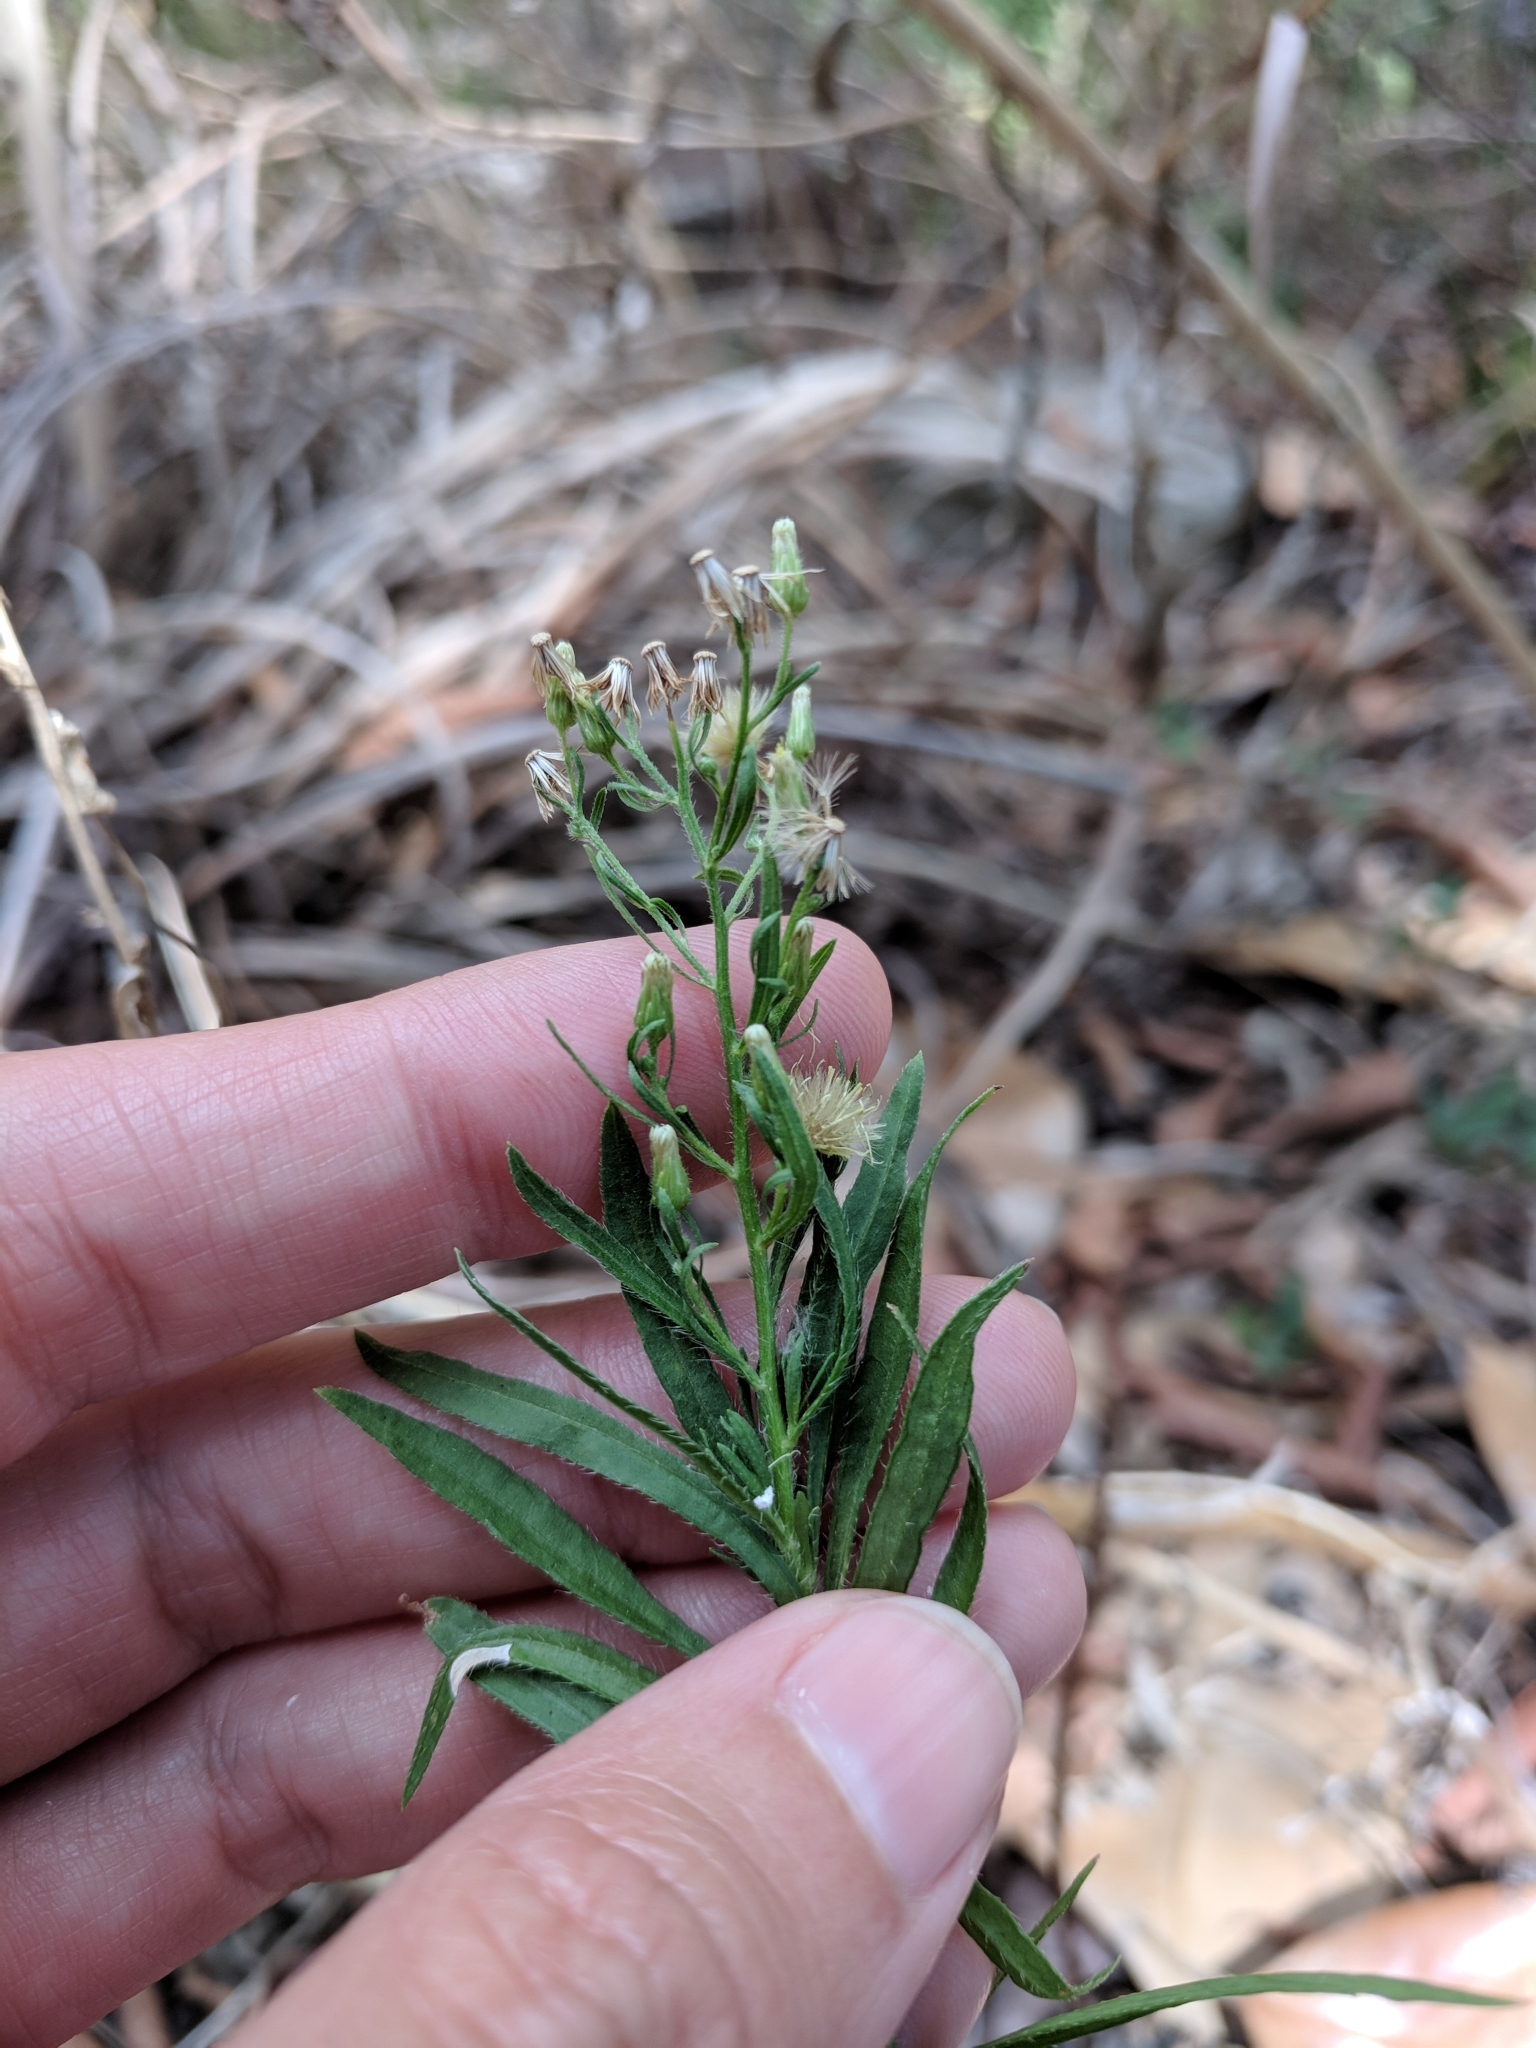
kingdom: Plantae
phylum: Tracheophyta
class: Magnoliopsida
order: Asterales
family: Asteraceae
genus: Erigeron
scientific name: Erigeron canadensis
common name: Canadian fleabane
